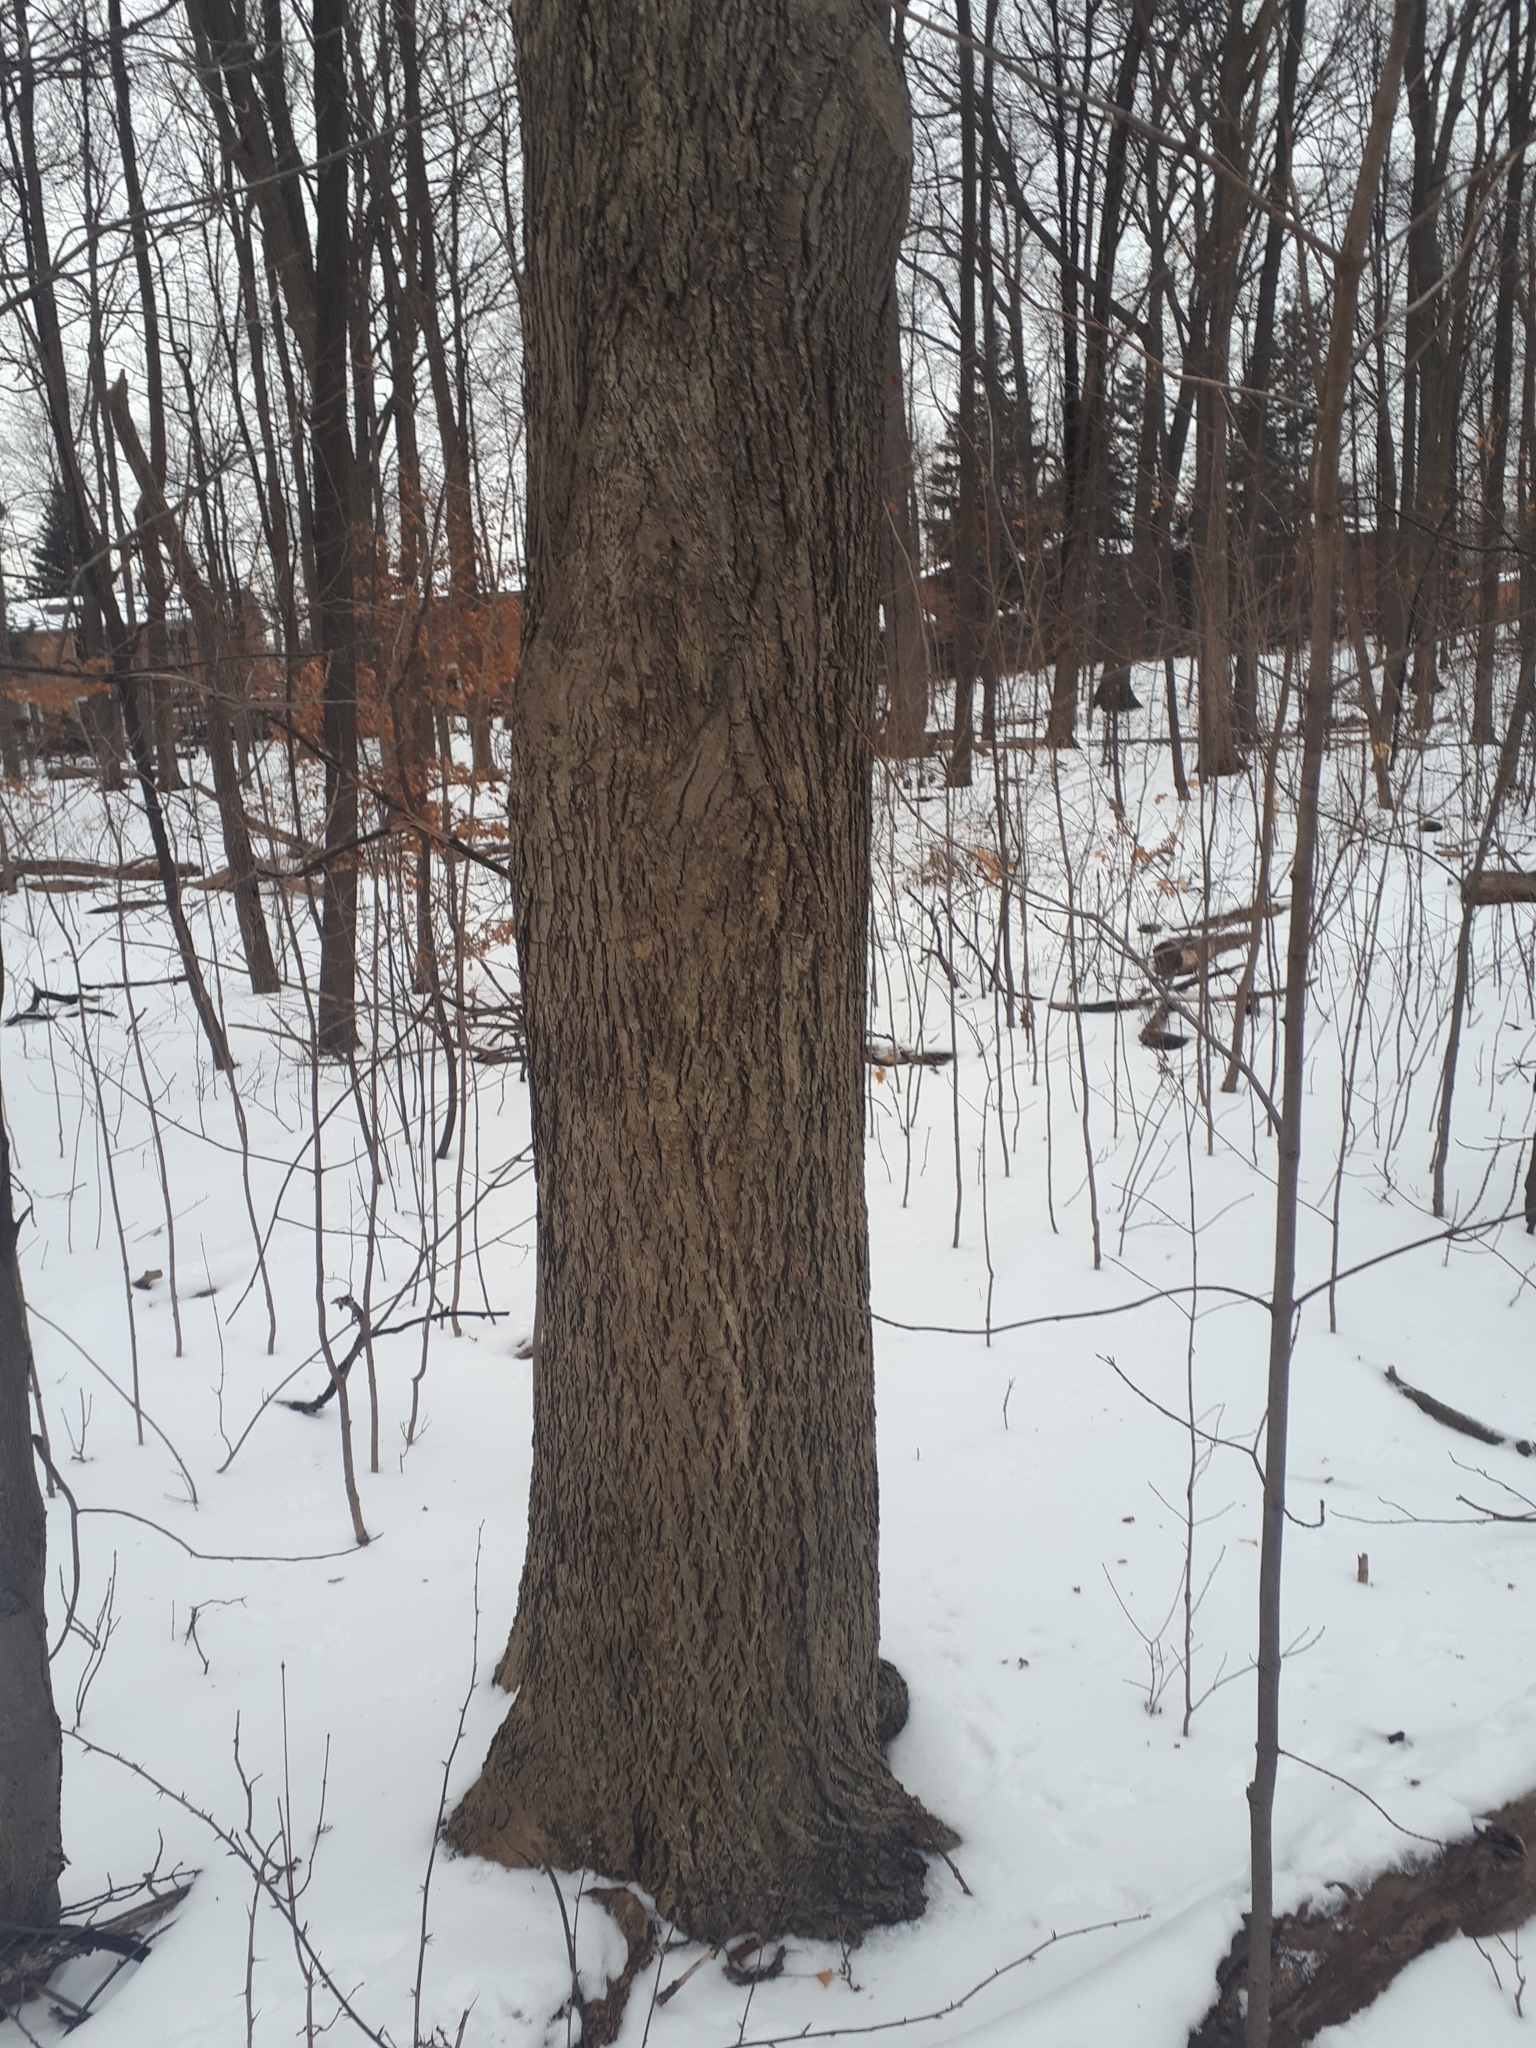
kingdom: Plantae
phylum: Tracheophyta
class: Magnoliopsida
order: Fagales
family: Juglandaceae
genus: Carya
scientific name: Carya cordiformis
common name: Bitternut hickory
